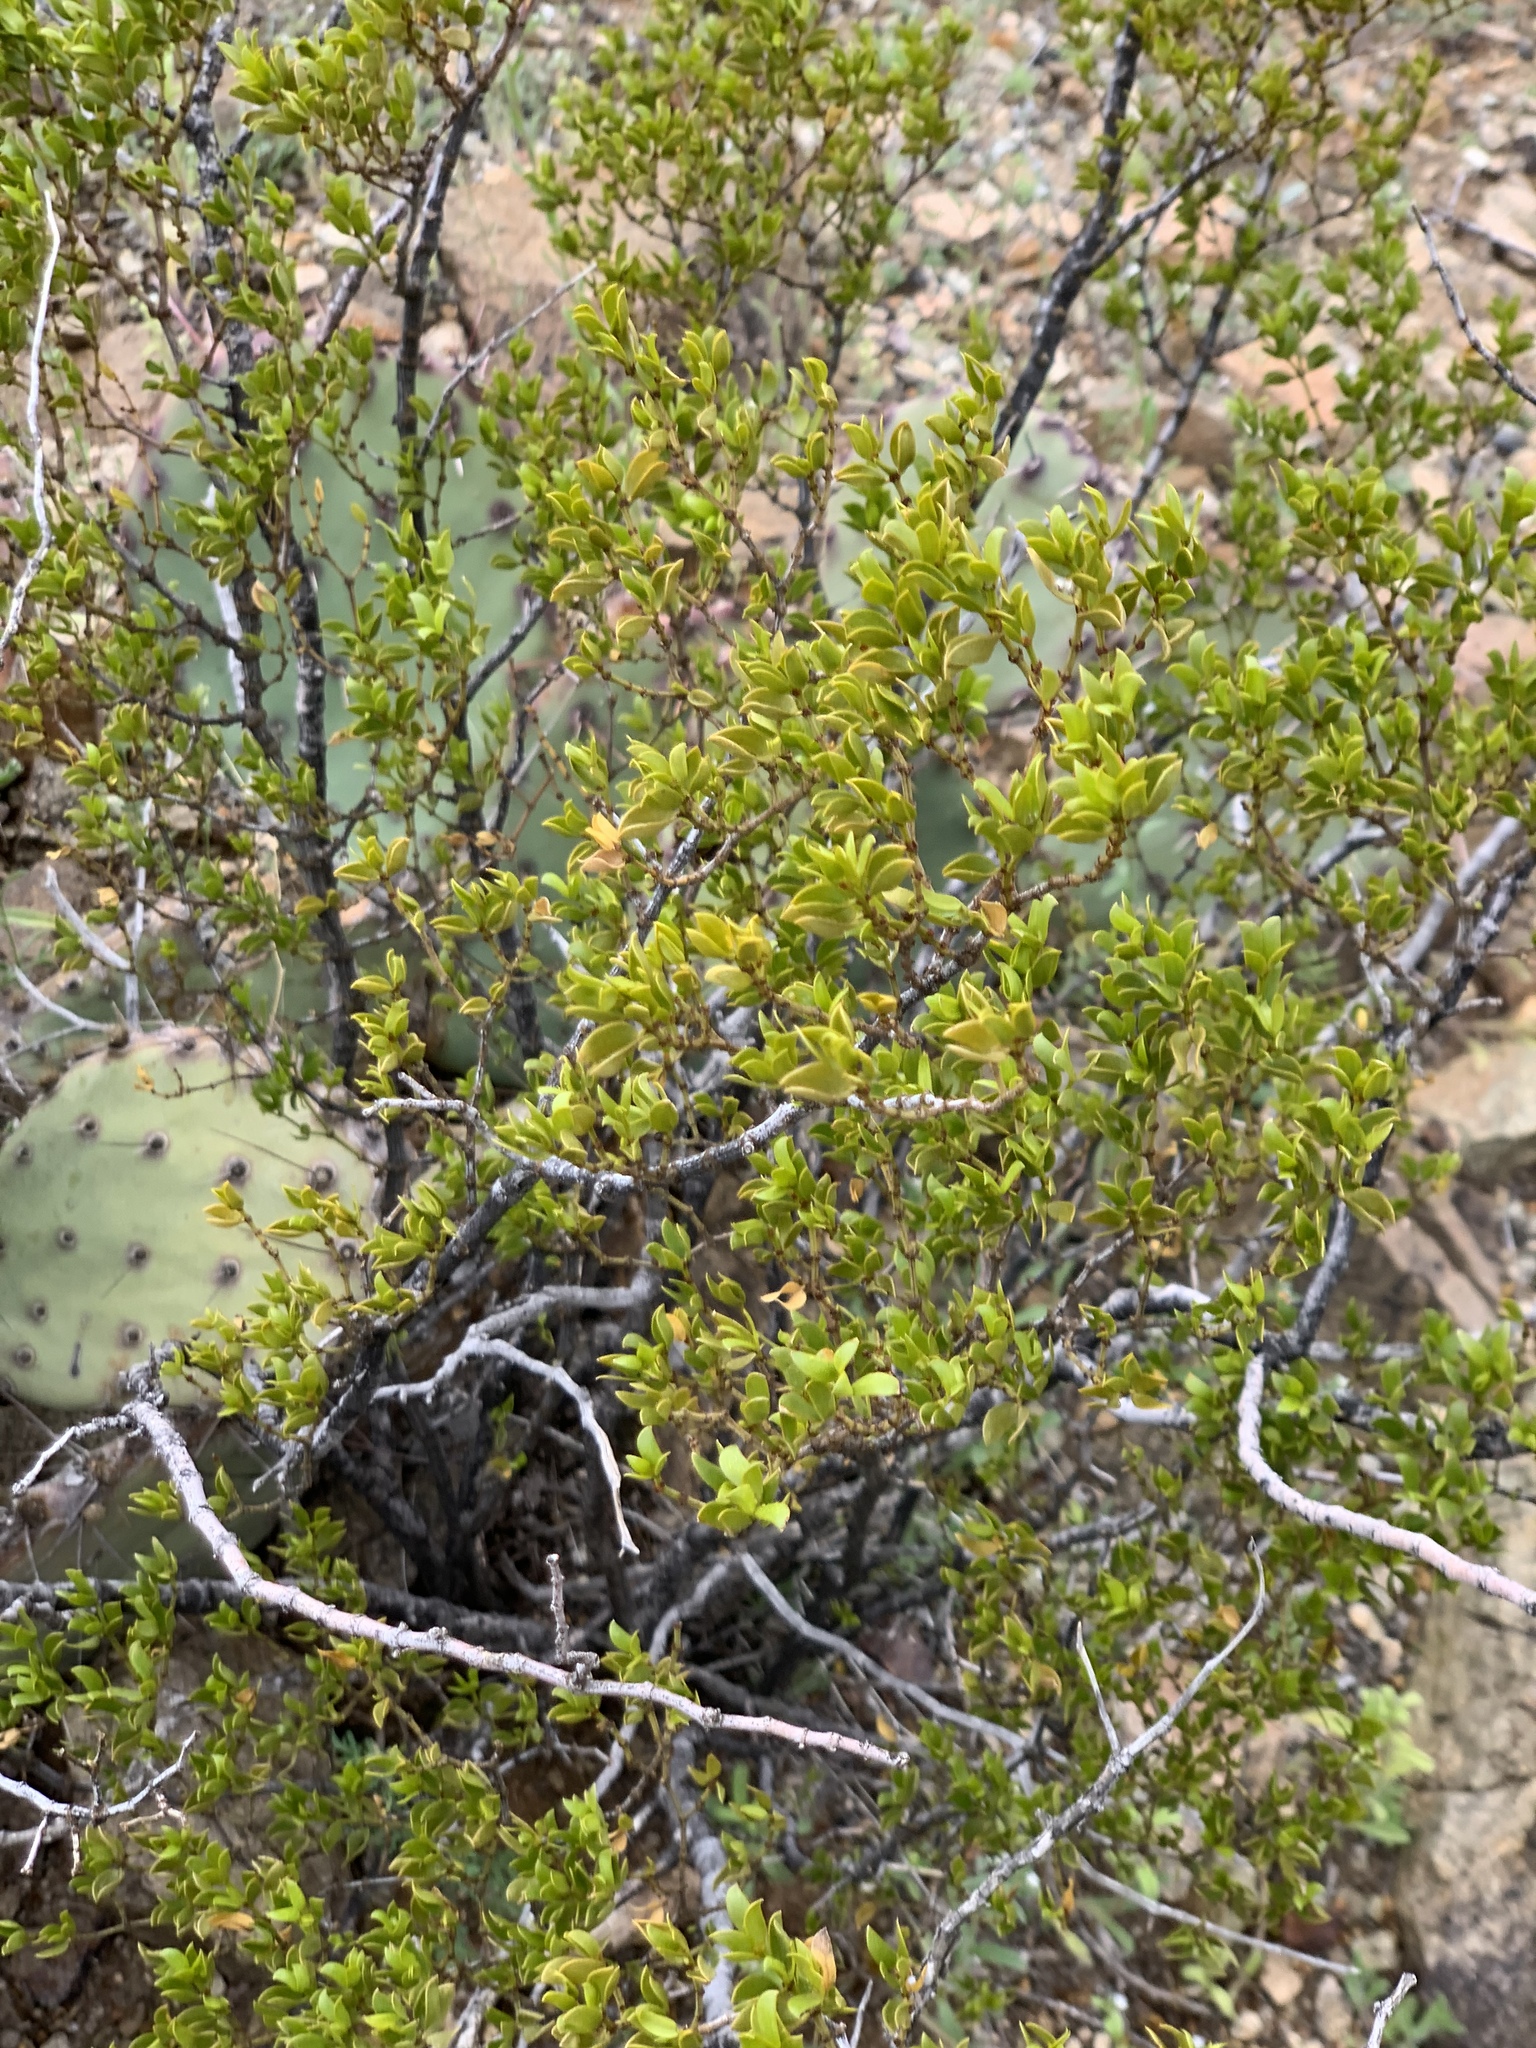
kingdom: Plantae
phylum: Tracheophyta
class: Magnoliopsida
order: Zygophyllales
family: Zygophyllaceae
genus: Larrea
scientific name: Larrea tridentata
